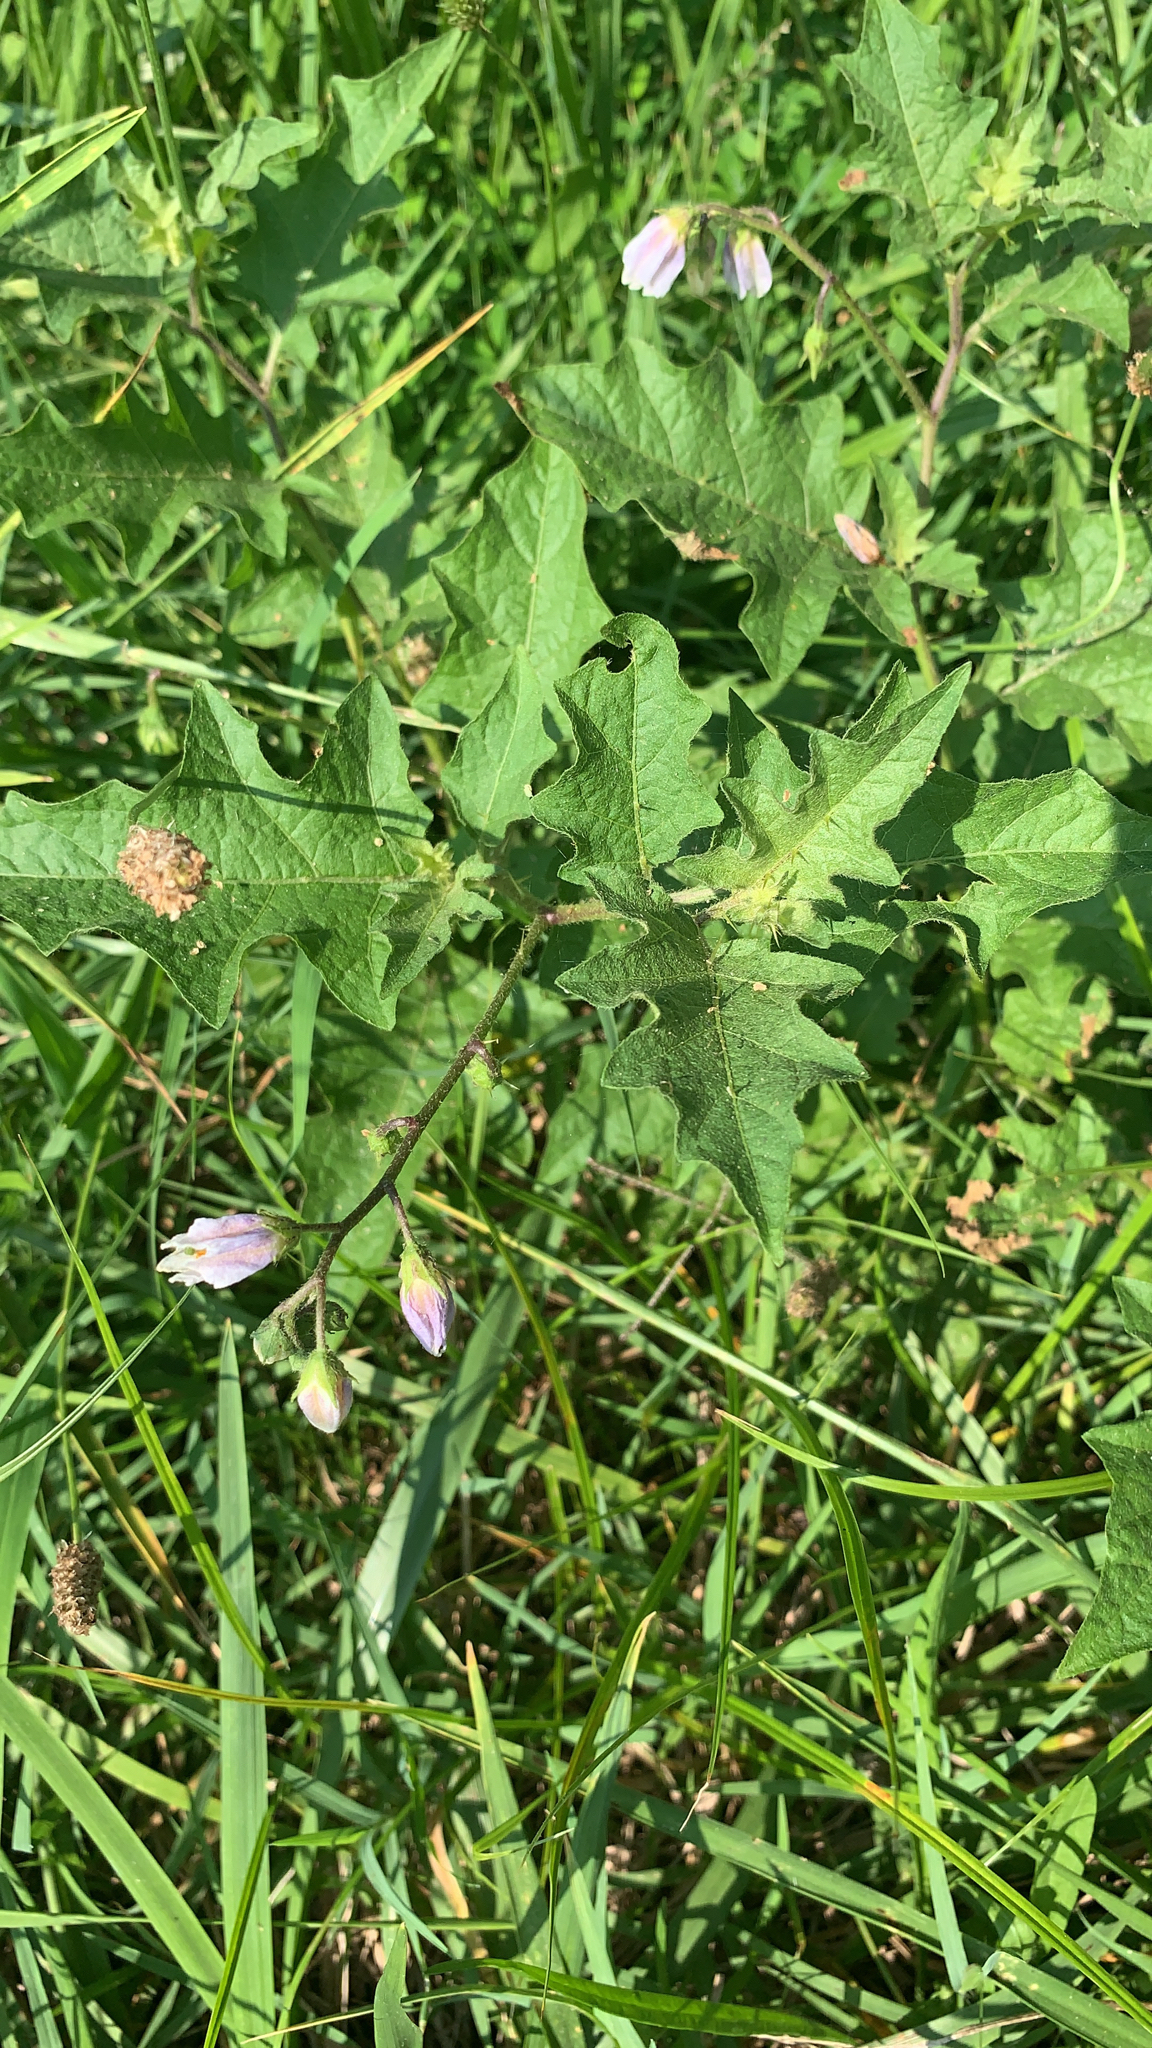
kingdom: Plantae
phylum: Tracheophyta
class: Magnoliopsida
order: Solanales
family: Solanaceae
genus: Solanum
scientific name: Solanum carolinense
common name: Horse-nettle
